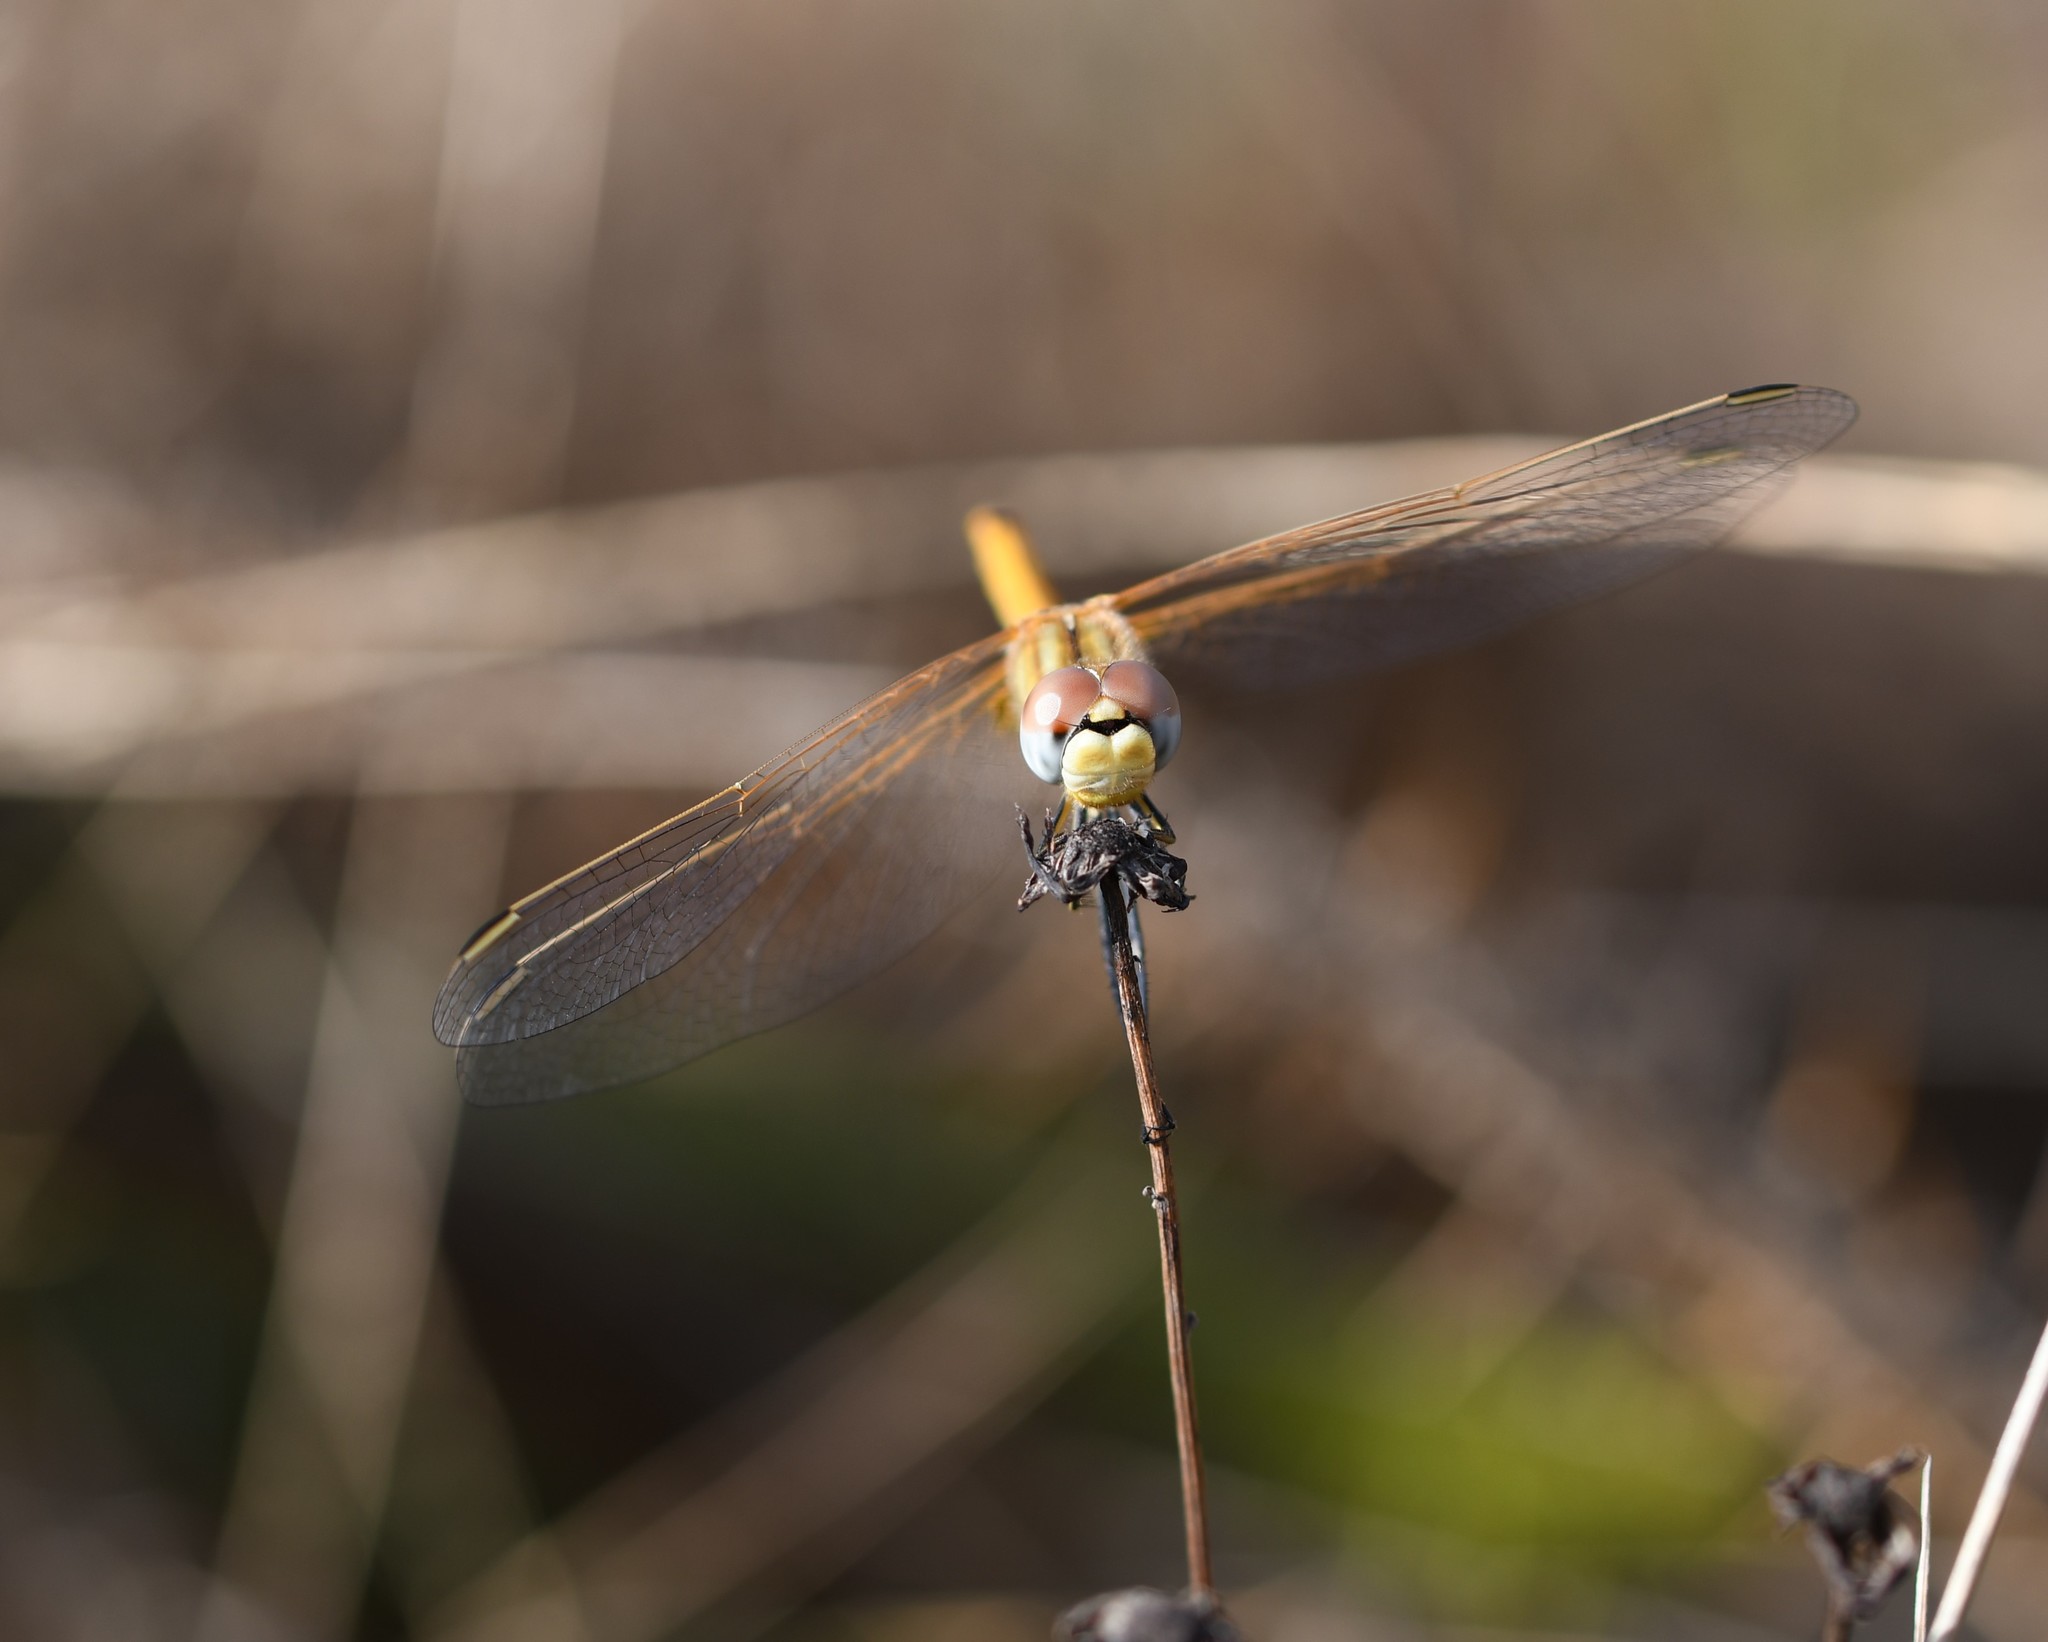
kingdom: Animalia
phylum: Arthropoda
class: Insecta
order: Odonata
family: Libellulidae
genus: Sympetrum
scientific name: Sympetrum fonscolombii
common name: Red-veined darter
